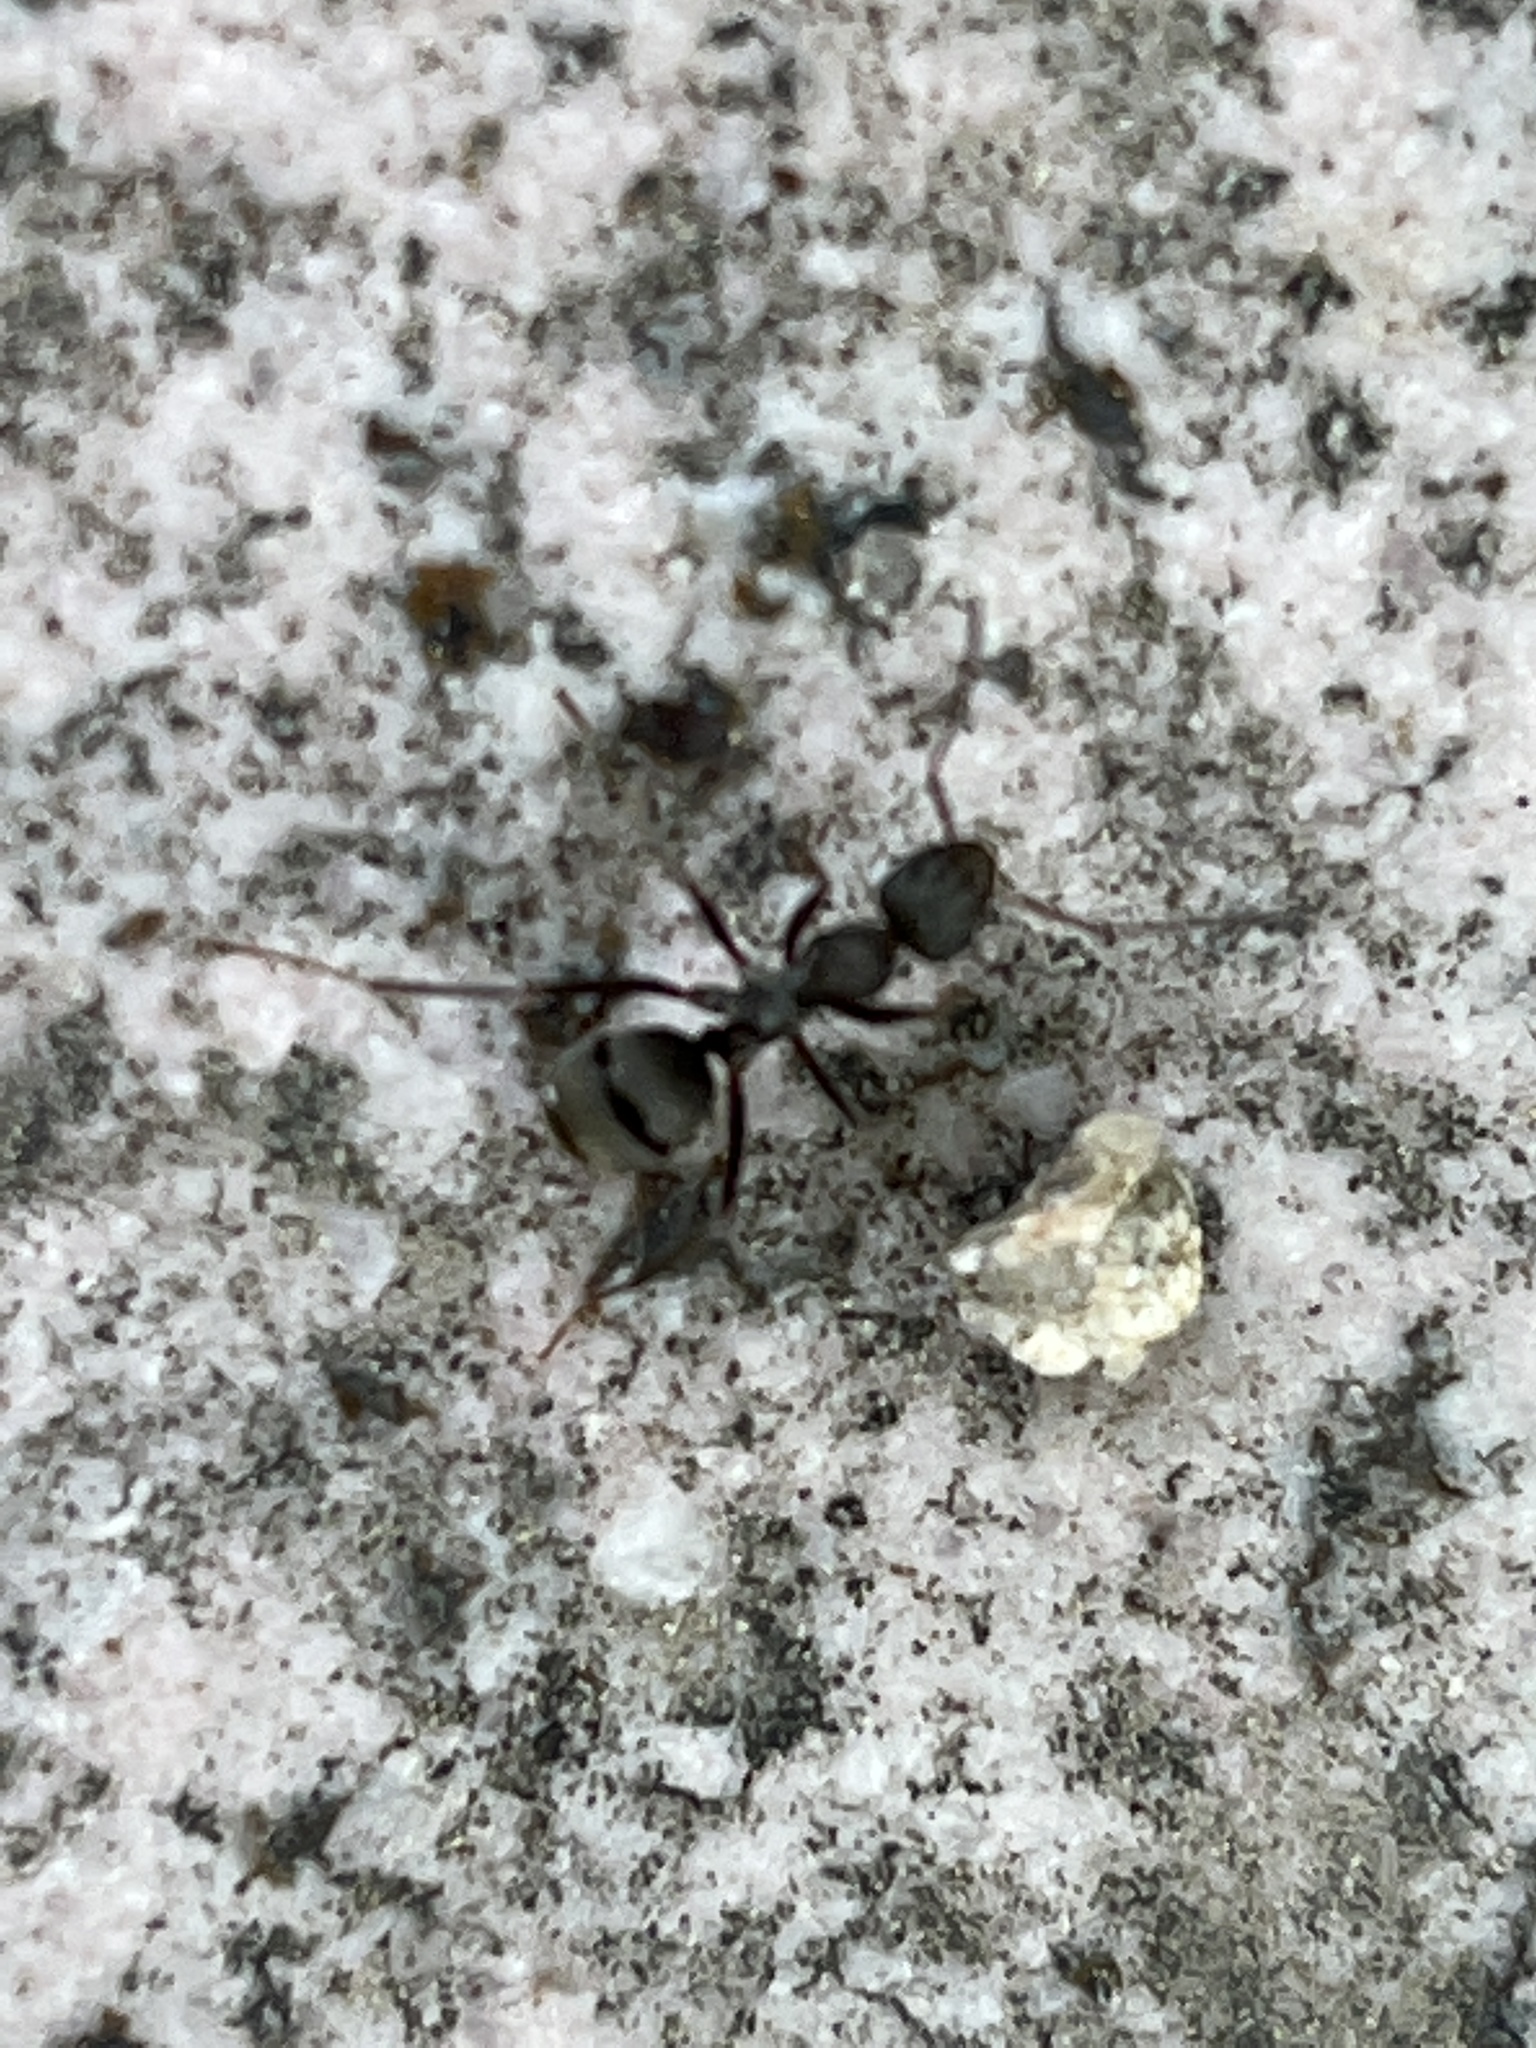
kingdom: Animalia
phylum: Arthropoda
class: Insecta
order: Hymenoptera
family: Formicidae
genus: Formica
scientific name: Formica japonica
